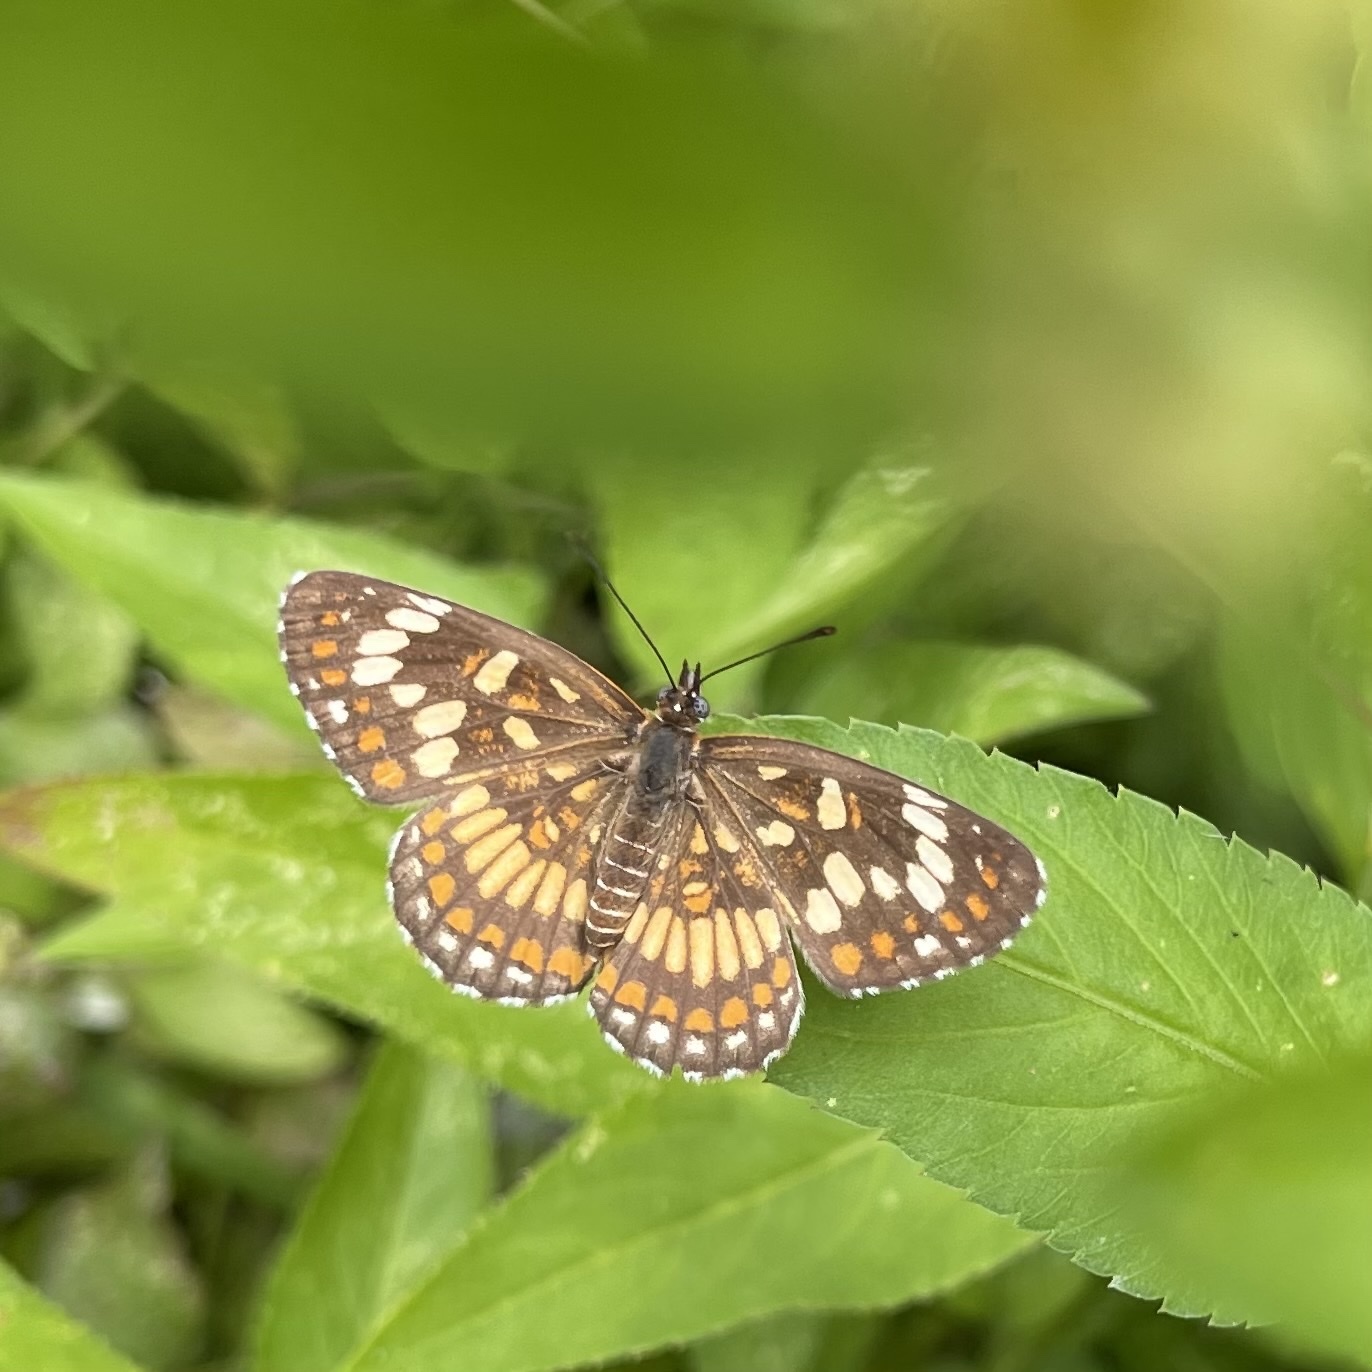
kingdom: Animalia
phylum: Arthropoda
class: Insecta
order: Lepidoptera
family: Nymphalidae
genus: Thessalia
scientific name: Thessalia theona
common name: Nymphalid moth
